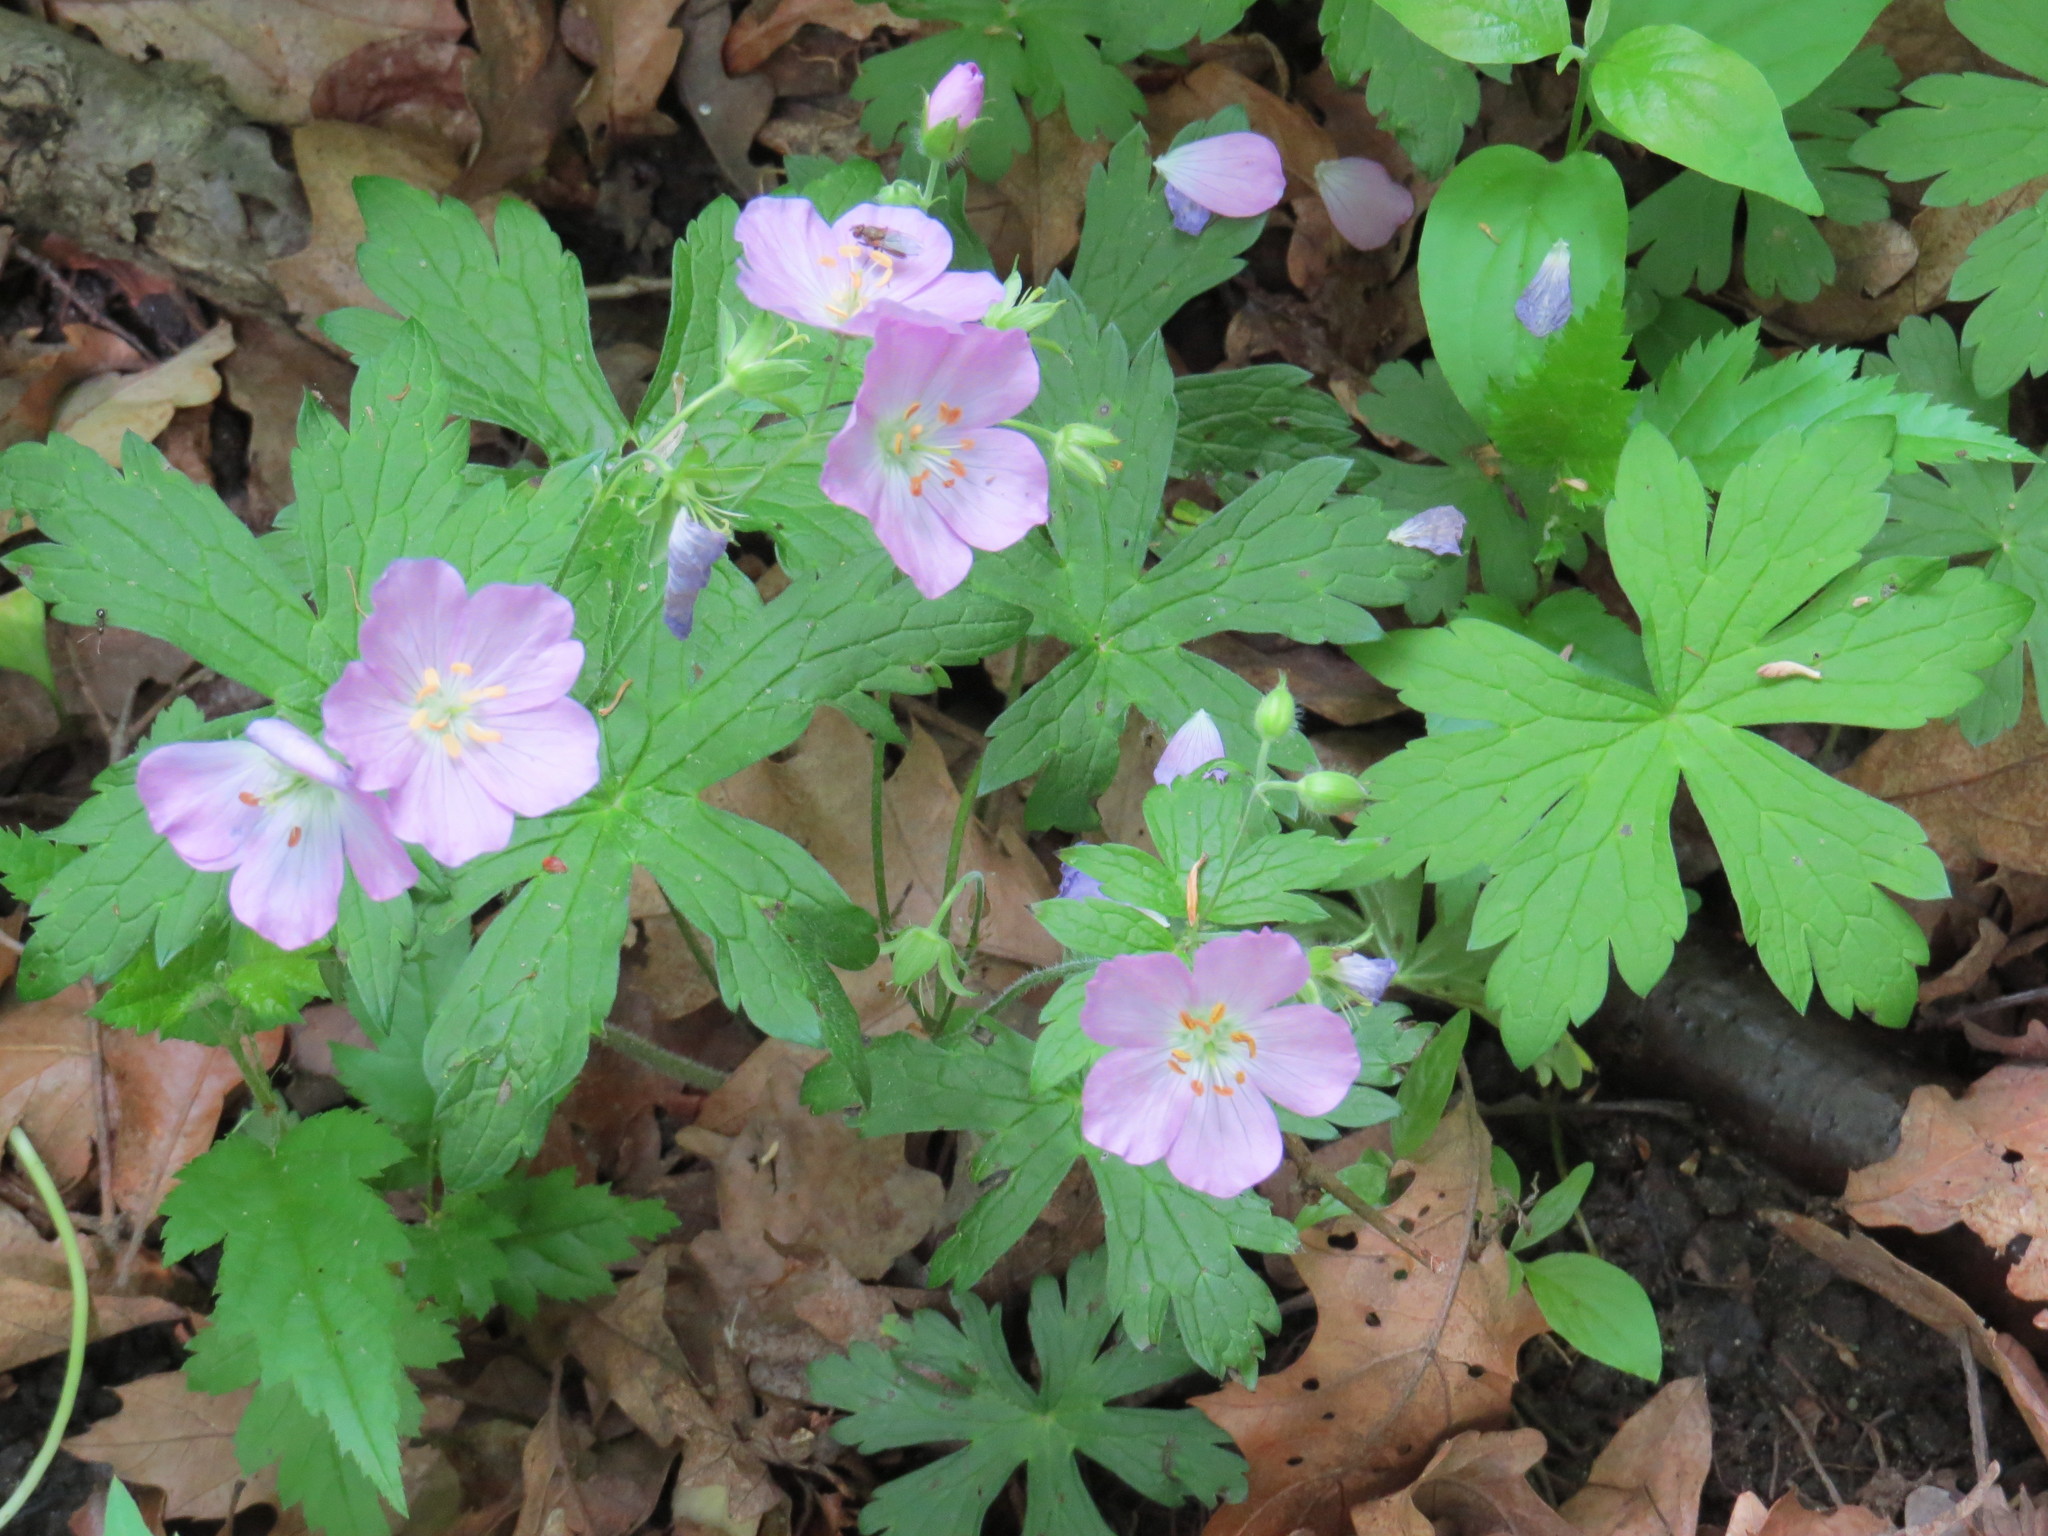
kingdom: Plantae
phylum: Tracheophyta
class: Magnoliopsida
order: Geraniales
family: Geraniaceae
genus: Geranium
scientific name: Geranium maculatum
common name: Spotted geranium
